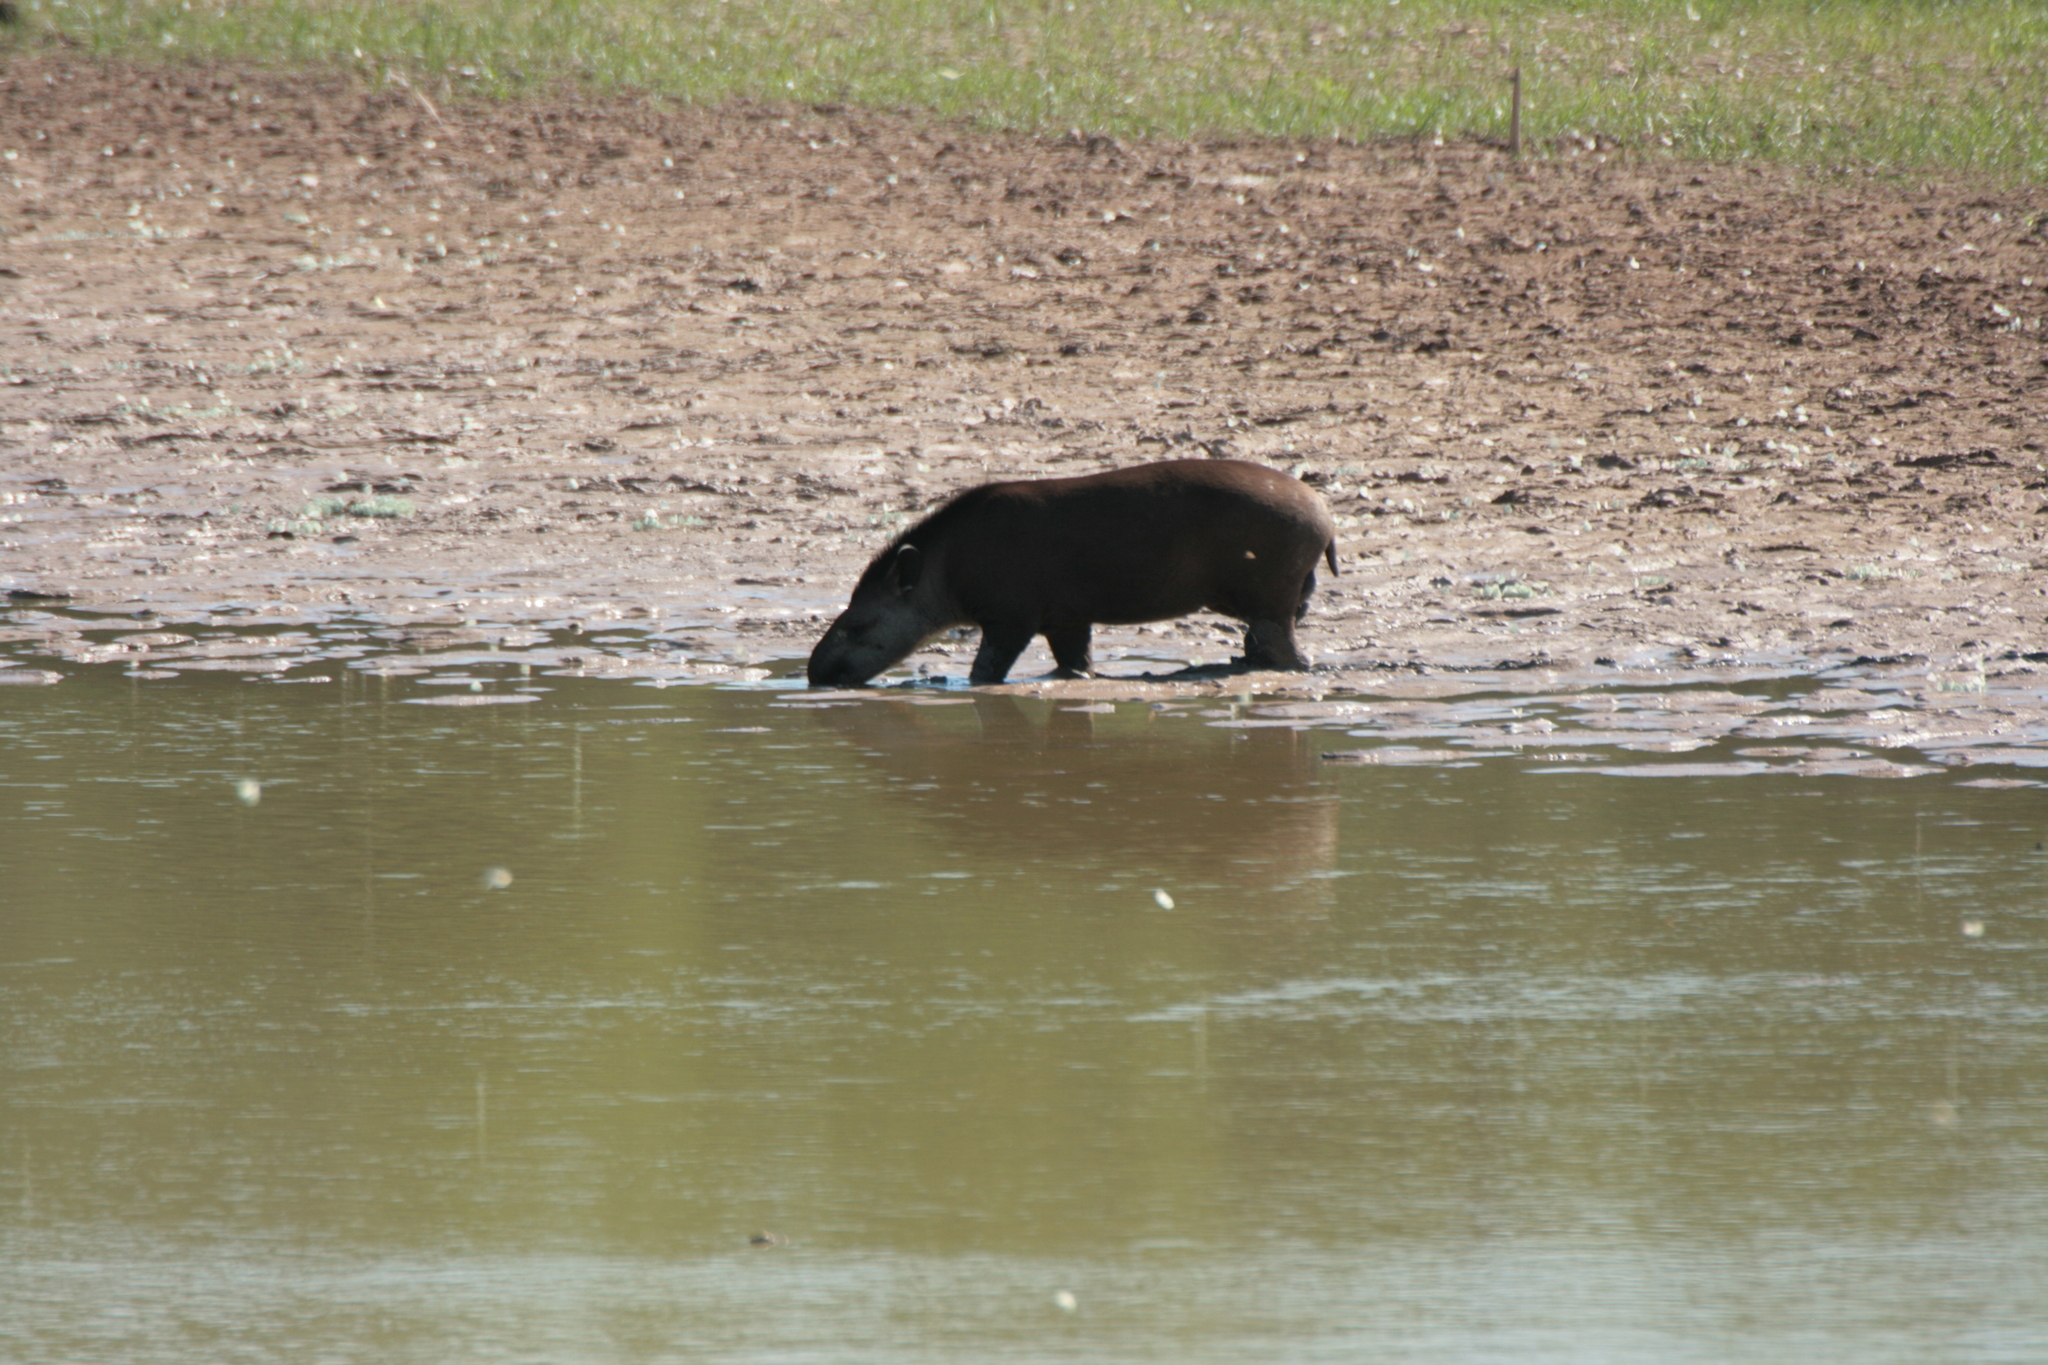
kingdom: Animalia
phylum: Chordata
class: Mammalia
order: Perissodactyla
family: Tapiridae
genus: Tapirus
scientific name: Tapirus terrestris
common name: Brazilian tapir
